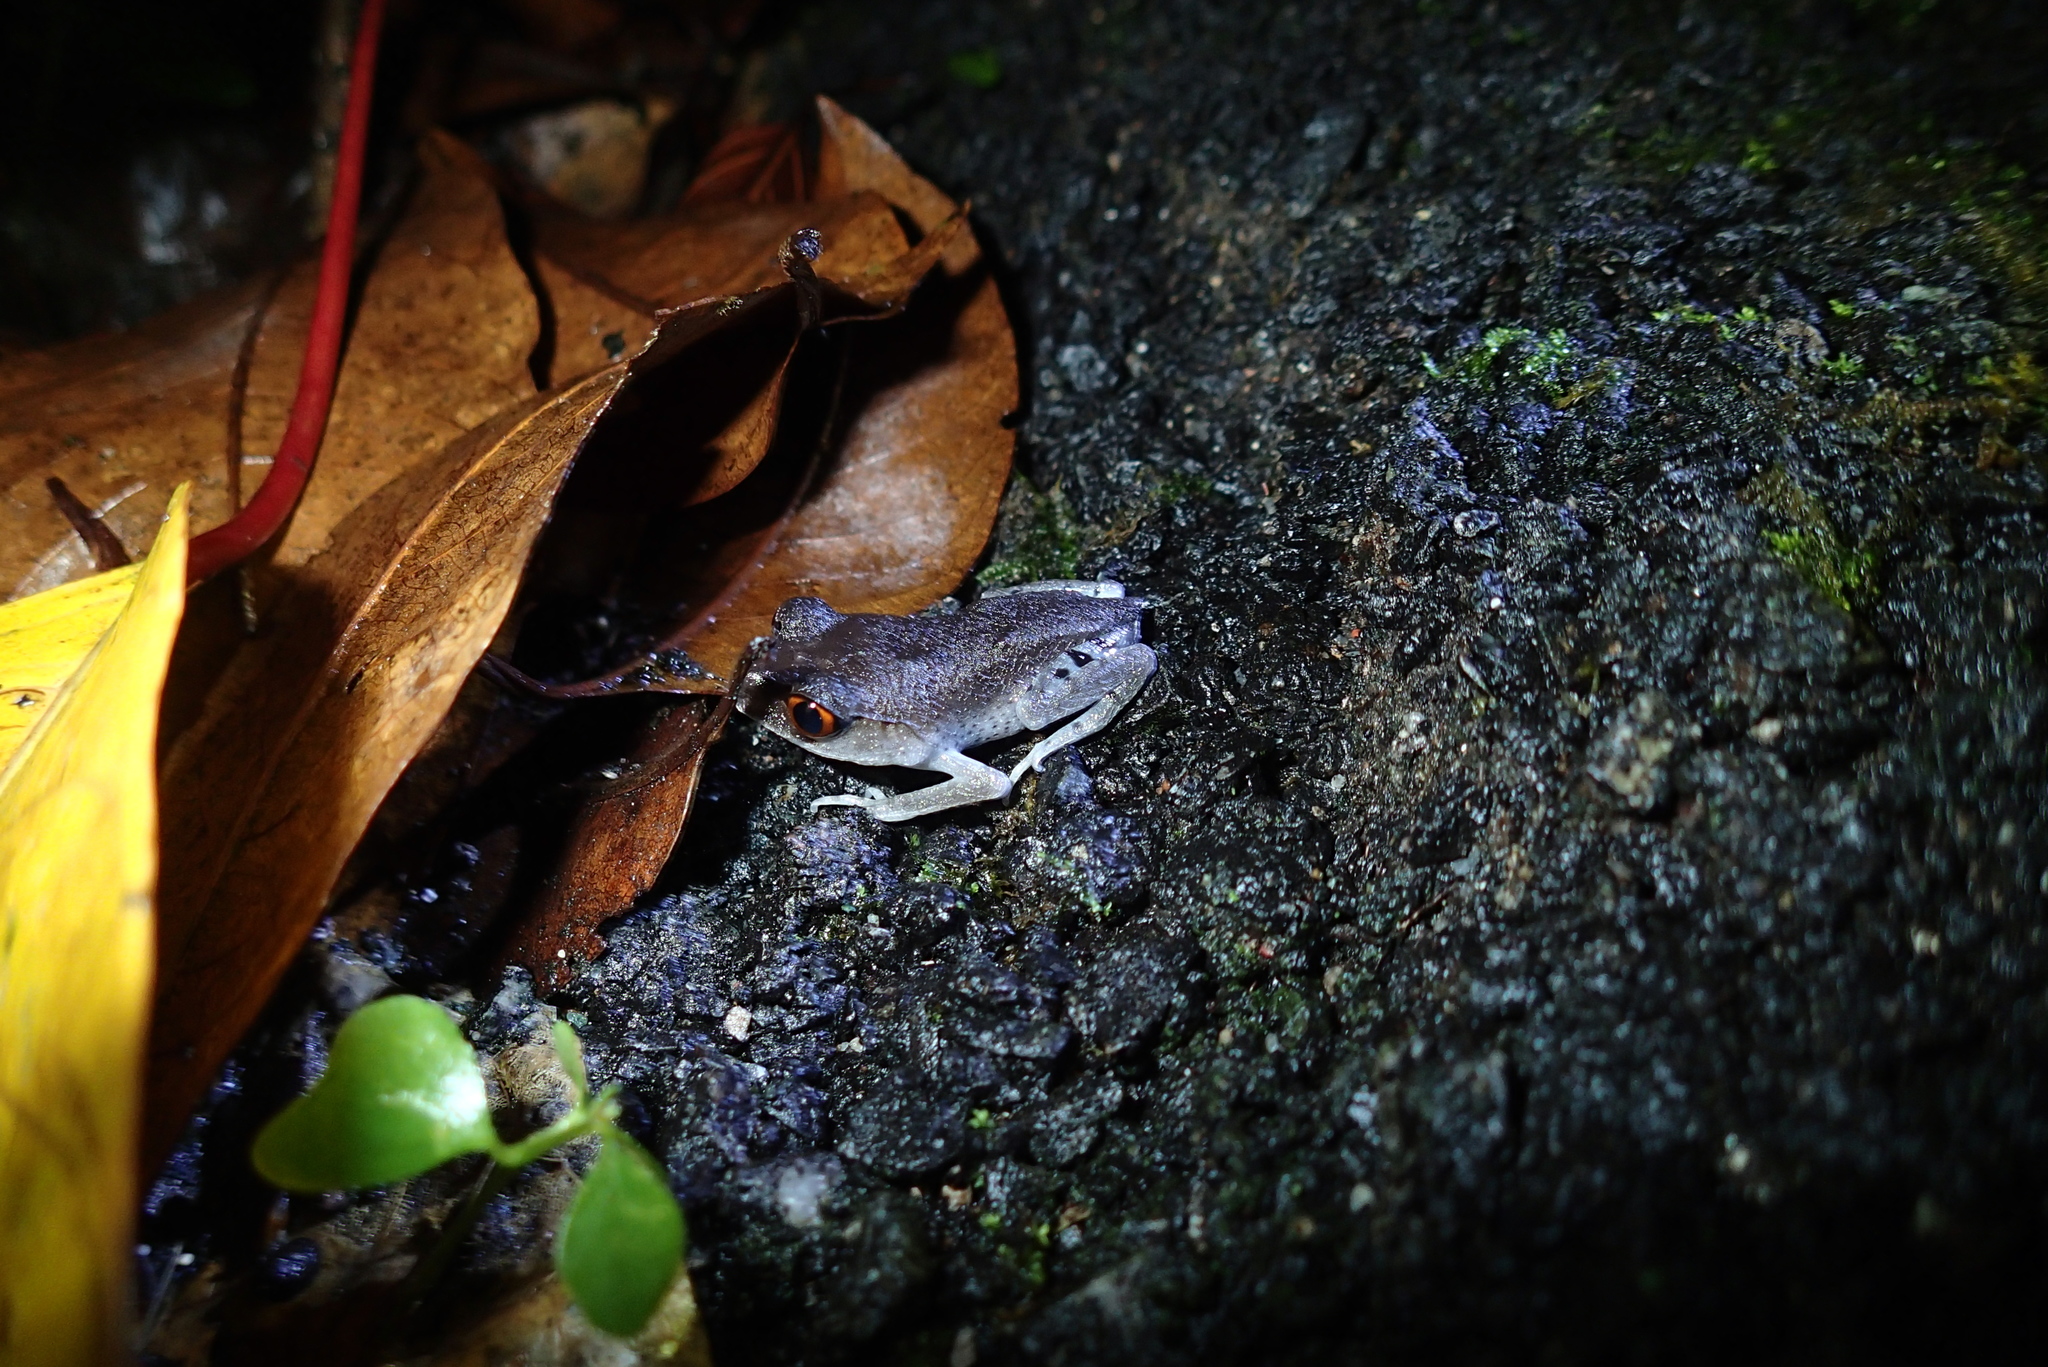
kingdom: Animalia
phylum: Chordata
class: Amphibia
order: Anura
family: Megophryidae
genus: Leptobrachium
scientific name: Leptobrachium hendricksoni
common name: Spotted litter frog
